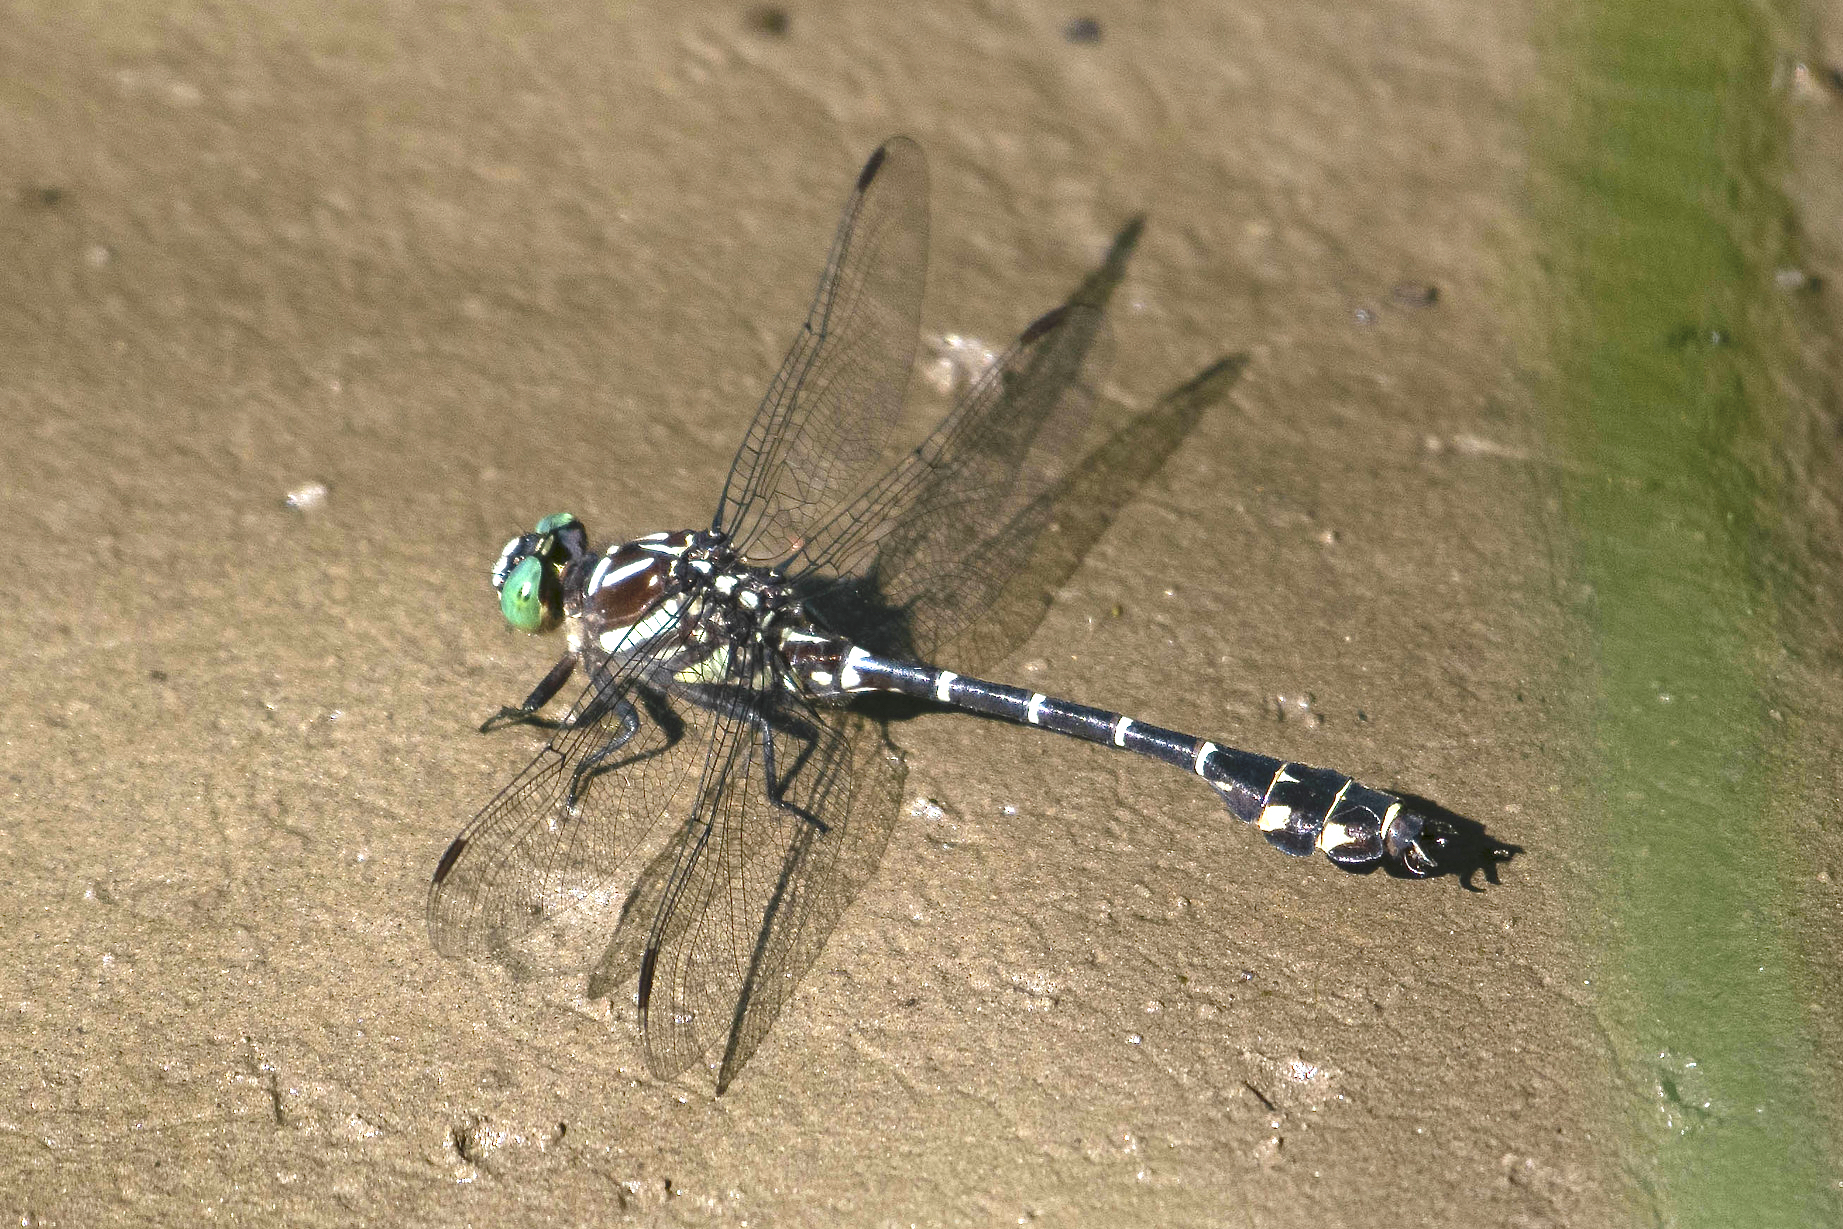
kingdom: Animalia
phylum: Arthropoda
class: Insecta
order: Odonata
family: Gomphidae
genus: Stylurus
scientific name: Stylurus scudderi
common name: Zebra clubtail
